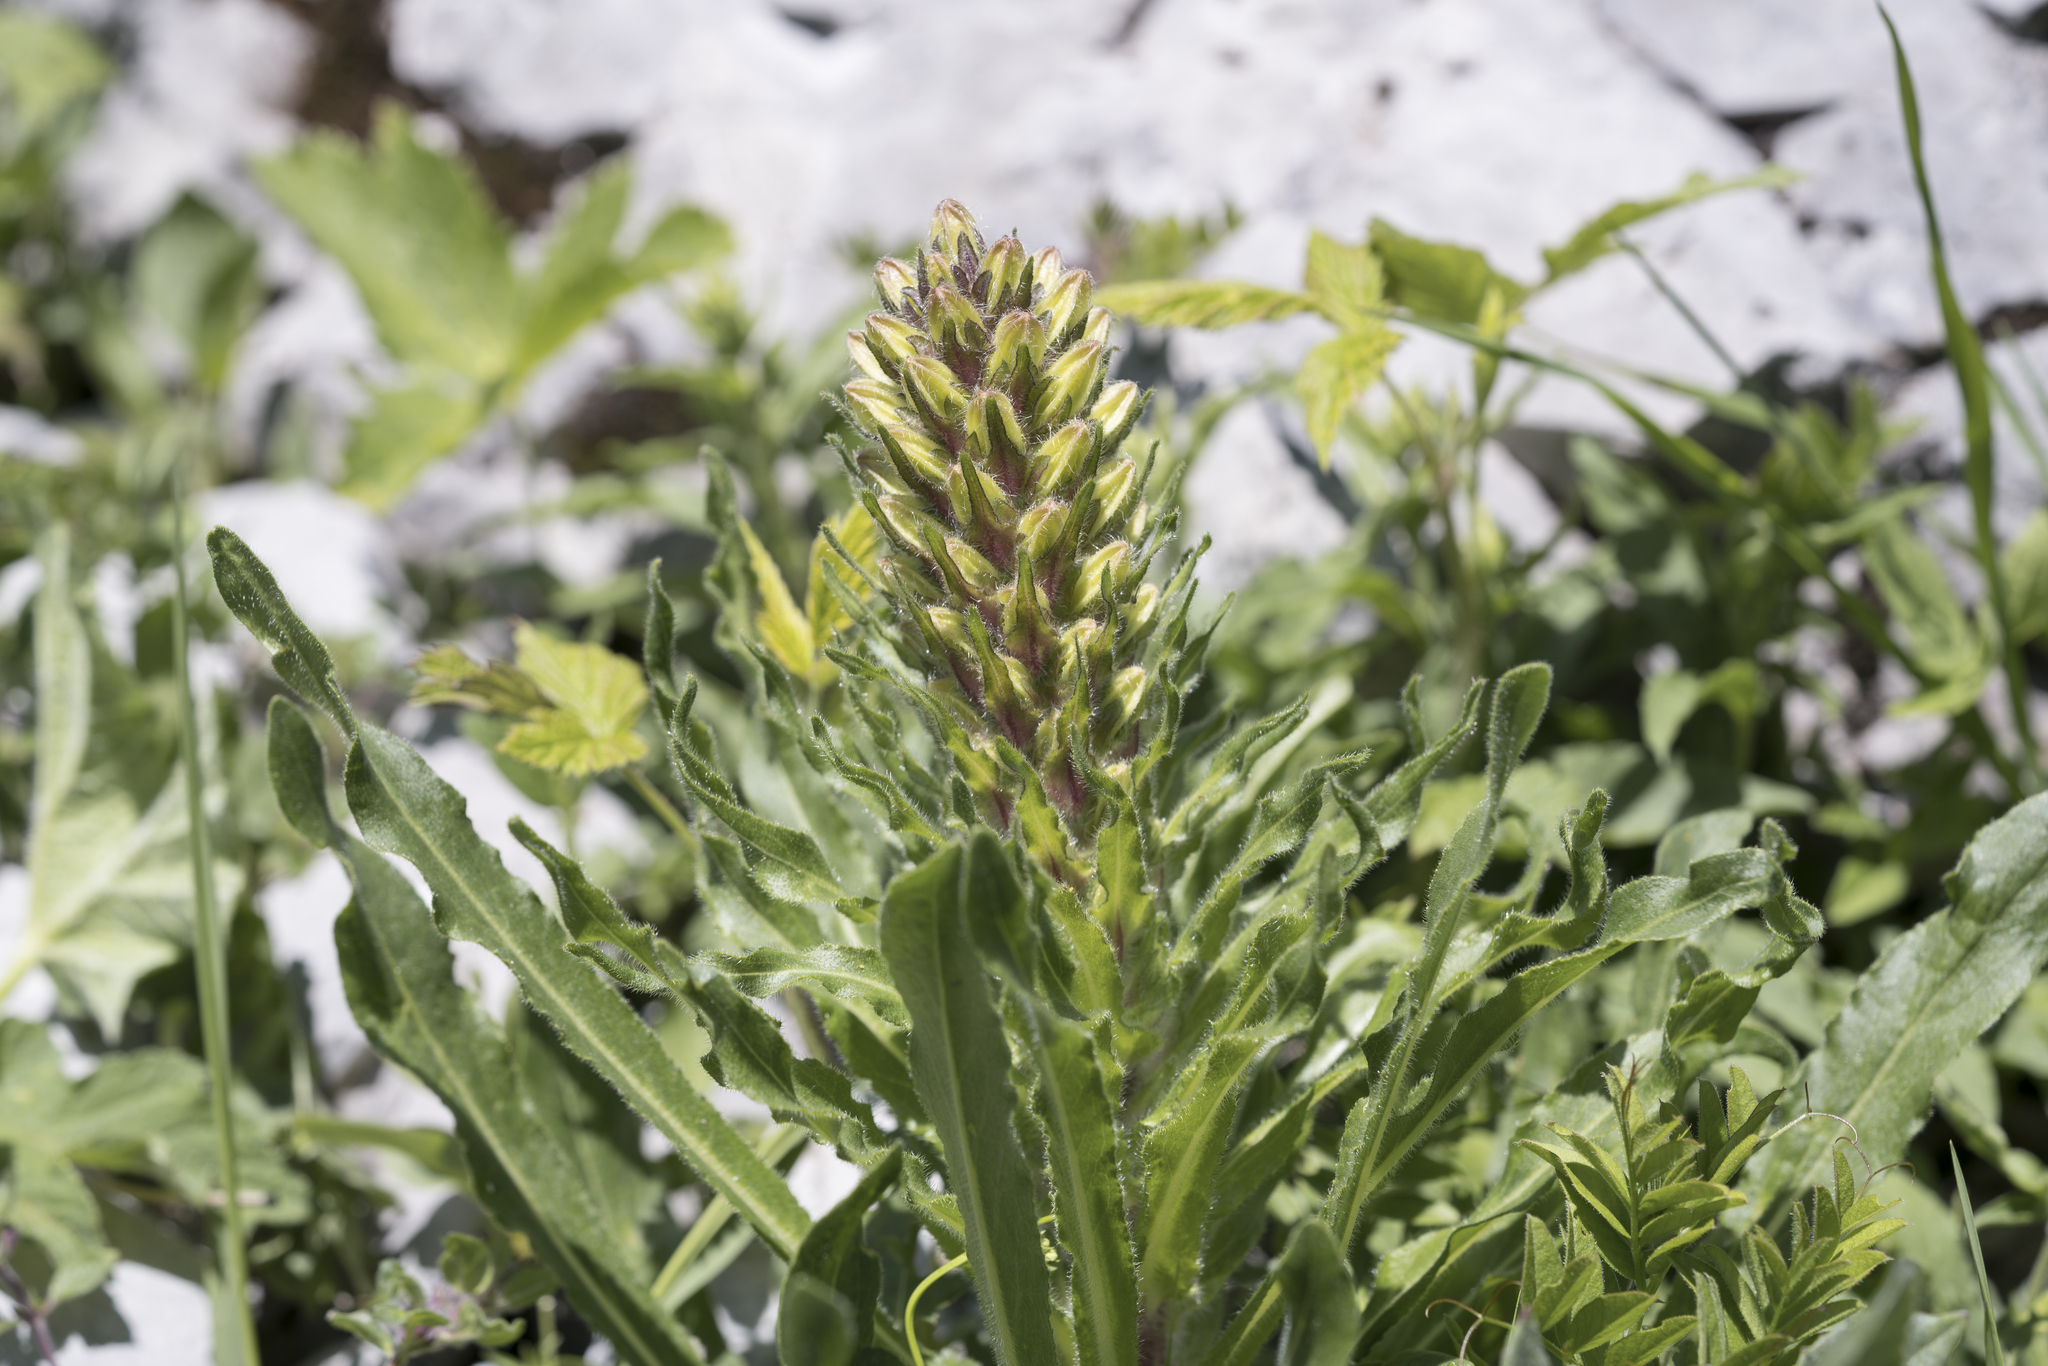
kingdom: Plantae
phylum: Tracheophyta
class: Magnoliopsida
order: Asterales
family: Campanulaceae
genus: Campanula
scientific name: Campanula thyrsoides
